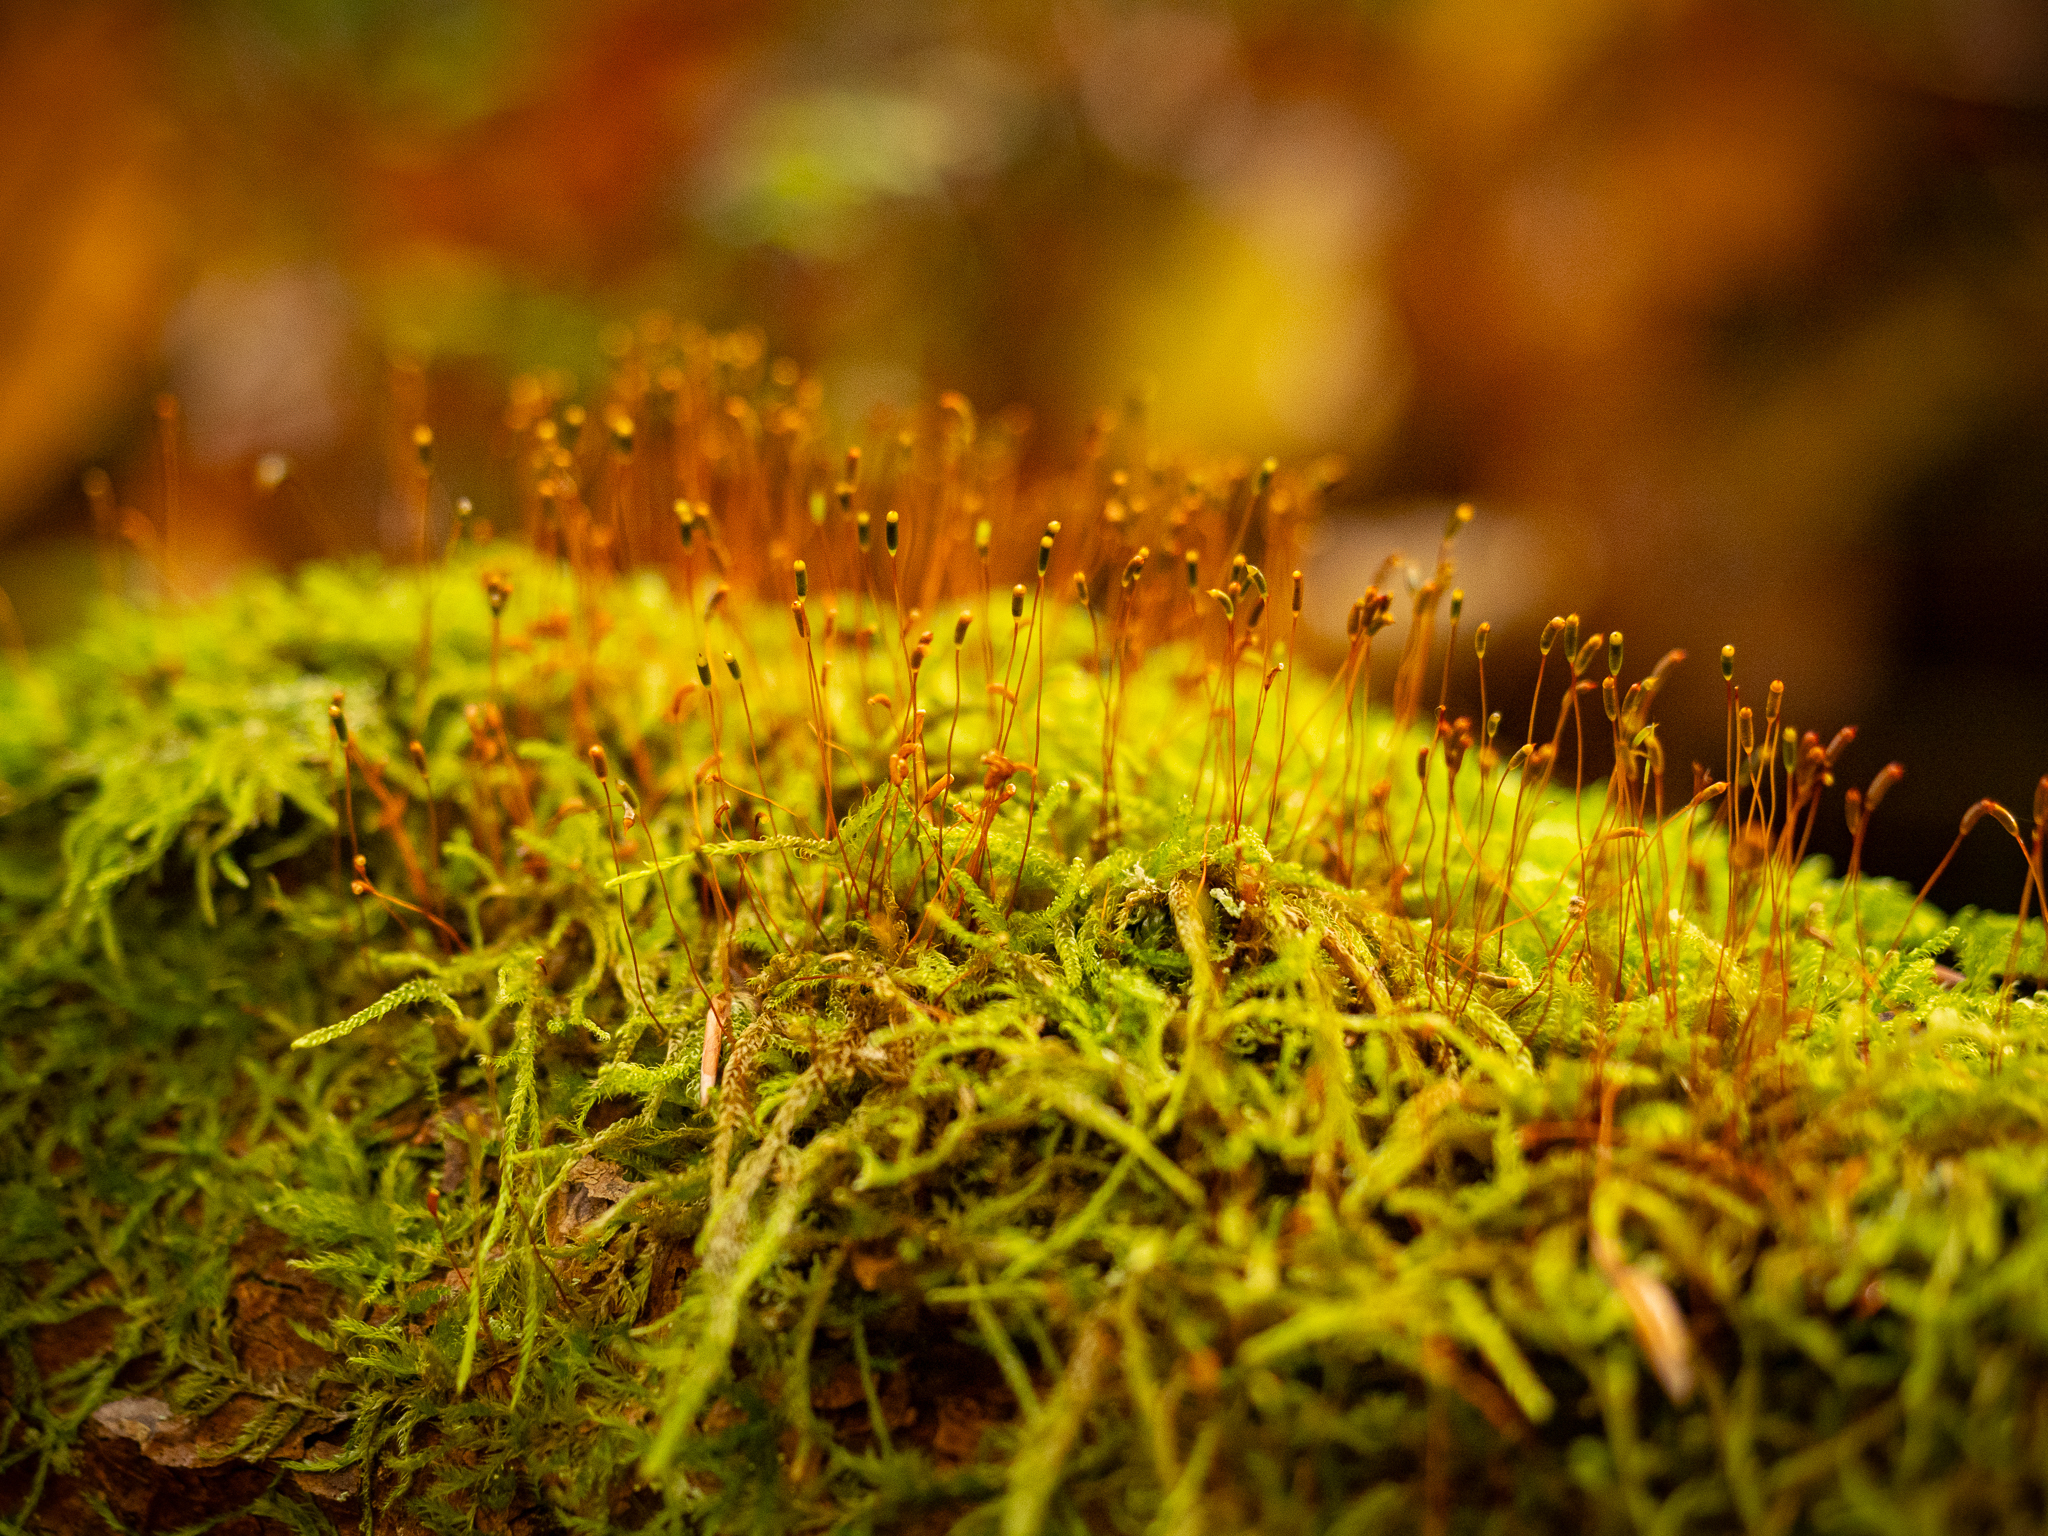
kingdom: Plantae
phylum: Bryophyta
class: Bryopsida
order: Hypnales
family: Hypnaceae
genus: Hypnum
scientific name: Hypnum cupressiforme
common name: Cypress-leaved plait-moss
